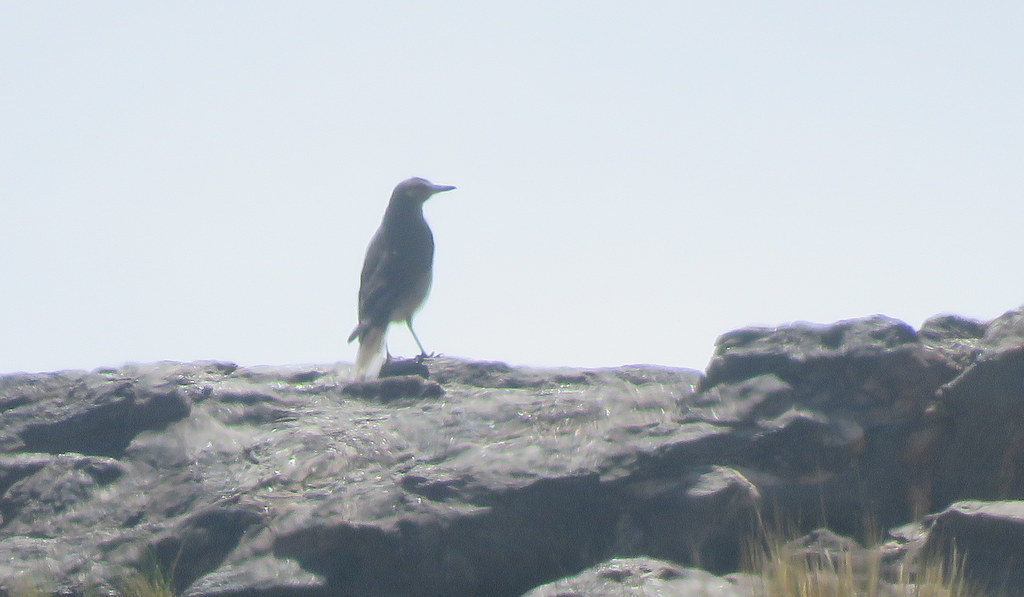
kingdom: Animalia
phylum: Chordata
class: Aves
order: Passeriformes
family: Tyrannidae
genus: Agriornis
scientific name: Agriornis montanus
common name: Black-billed shrike-tyrant
